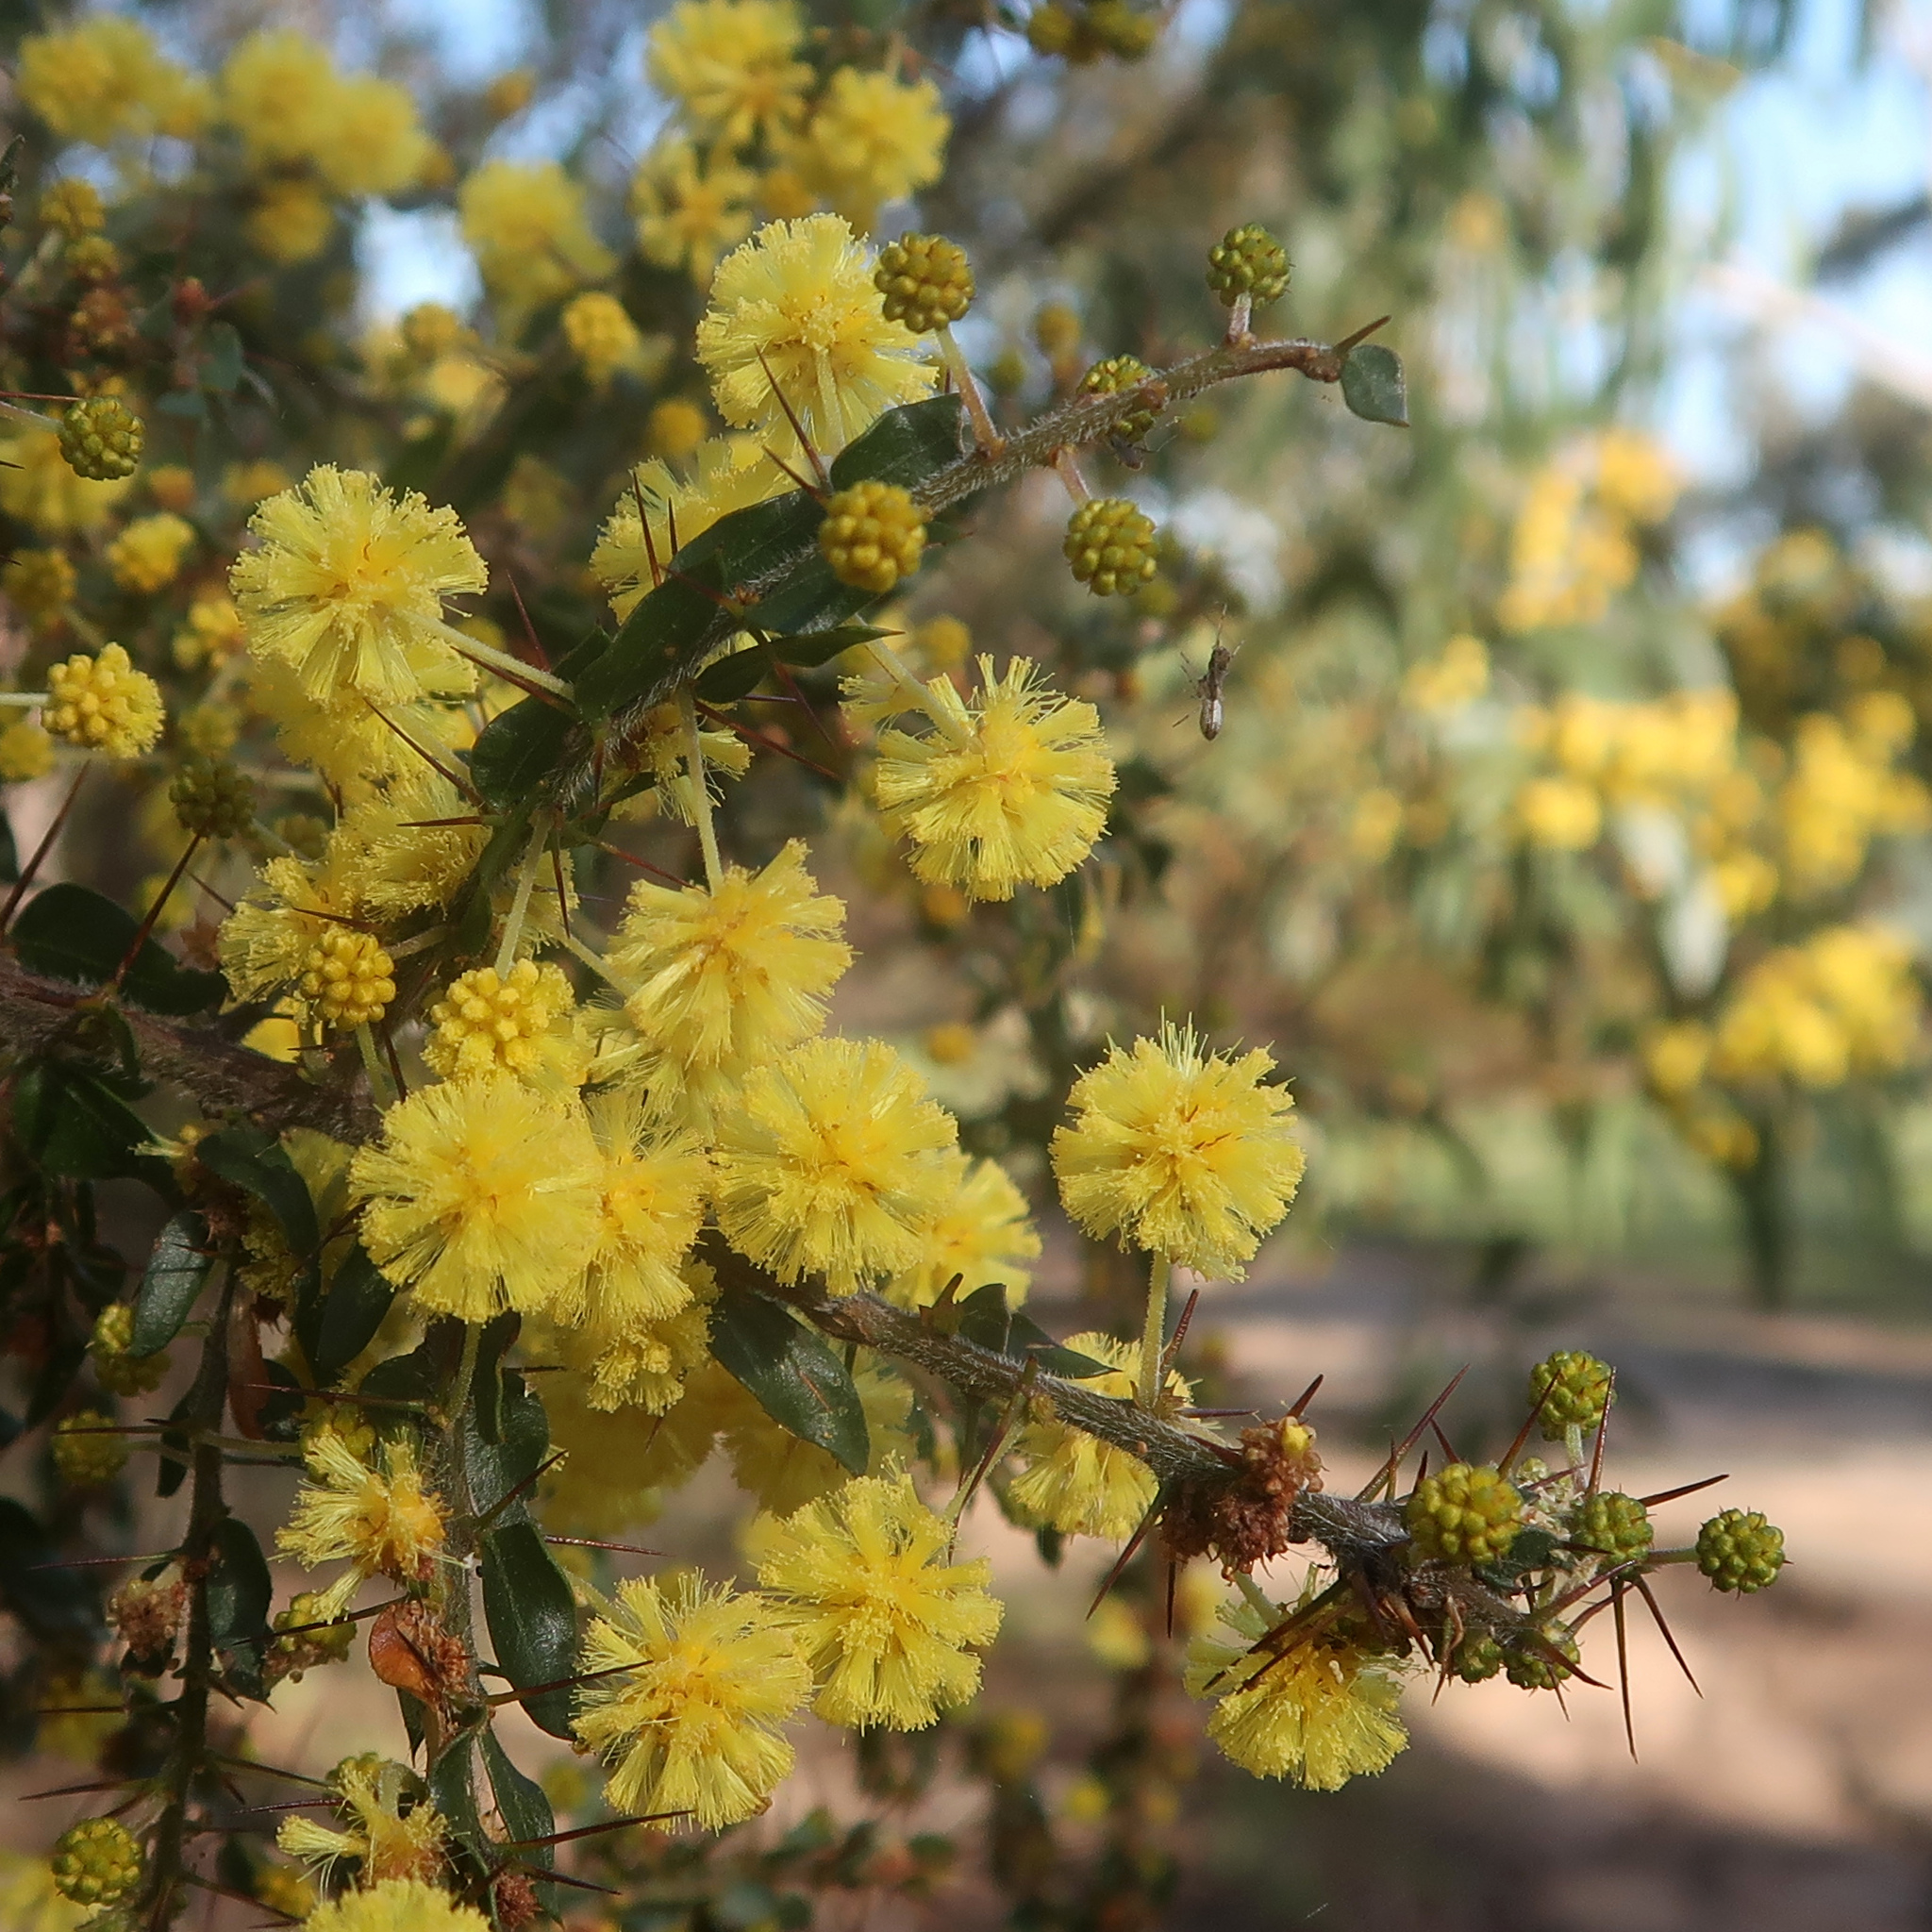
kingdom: Plantae
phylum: Tracheophyta
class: Magnoliopsida
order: Fabales
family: Fabaceae
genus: Acacia
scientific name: Acacia paradoxa
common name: Paradox acacia
